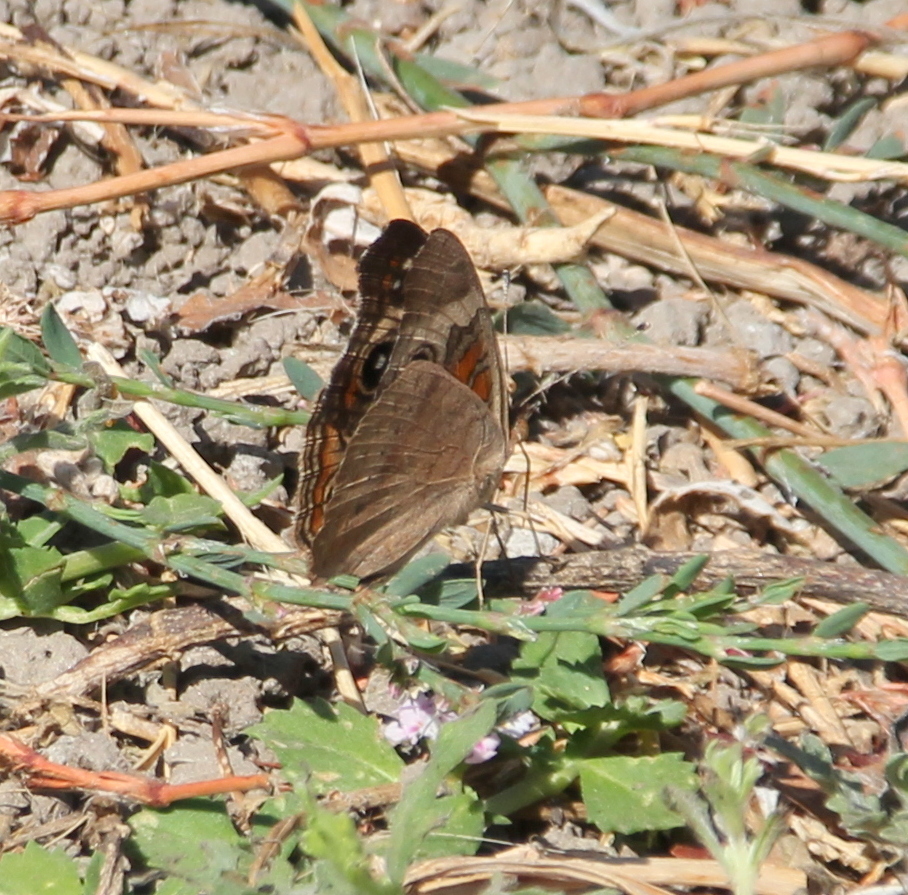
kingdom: Animalia
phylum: Arthropoda
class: Insecta
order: Lepidoptera
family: Nymphalidae
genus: Junonia
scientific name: Junonia grisea
